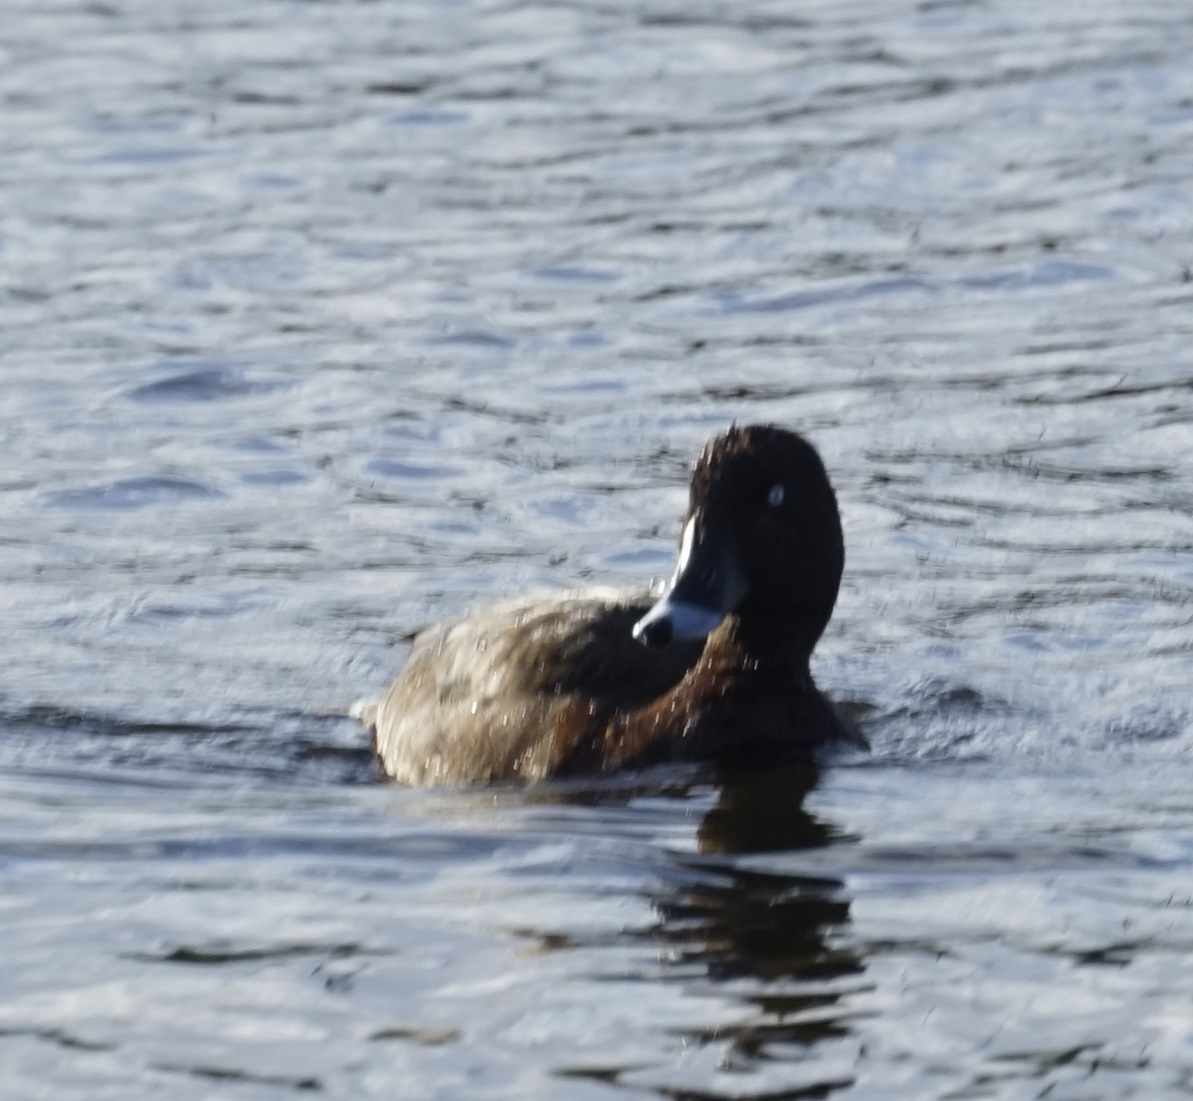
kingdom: Animalia
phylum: Chordata
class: Aves
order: Anseriformes
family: Anatidae
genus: Aythya
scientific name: Aythya australis
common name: Hardhead
